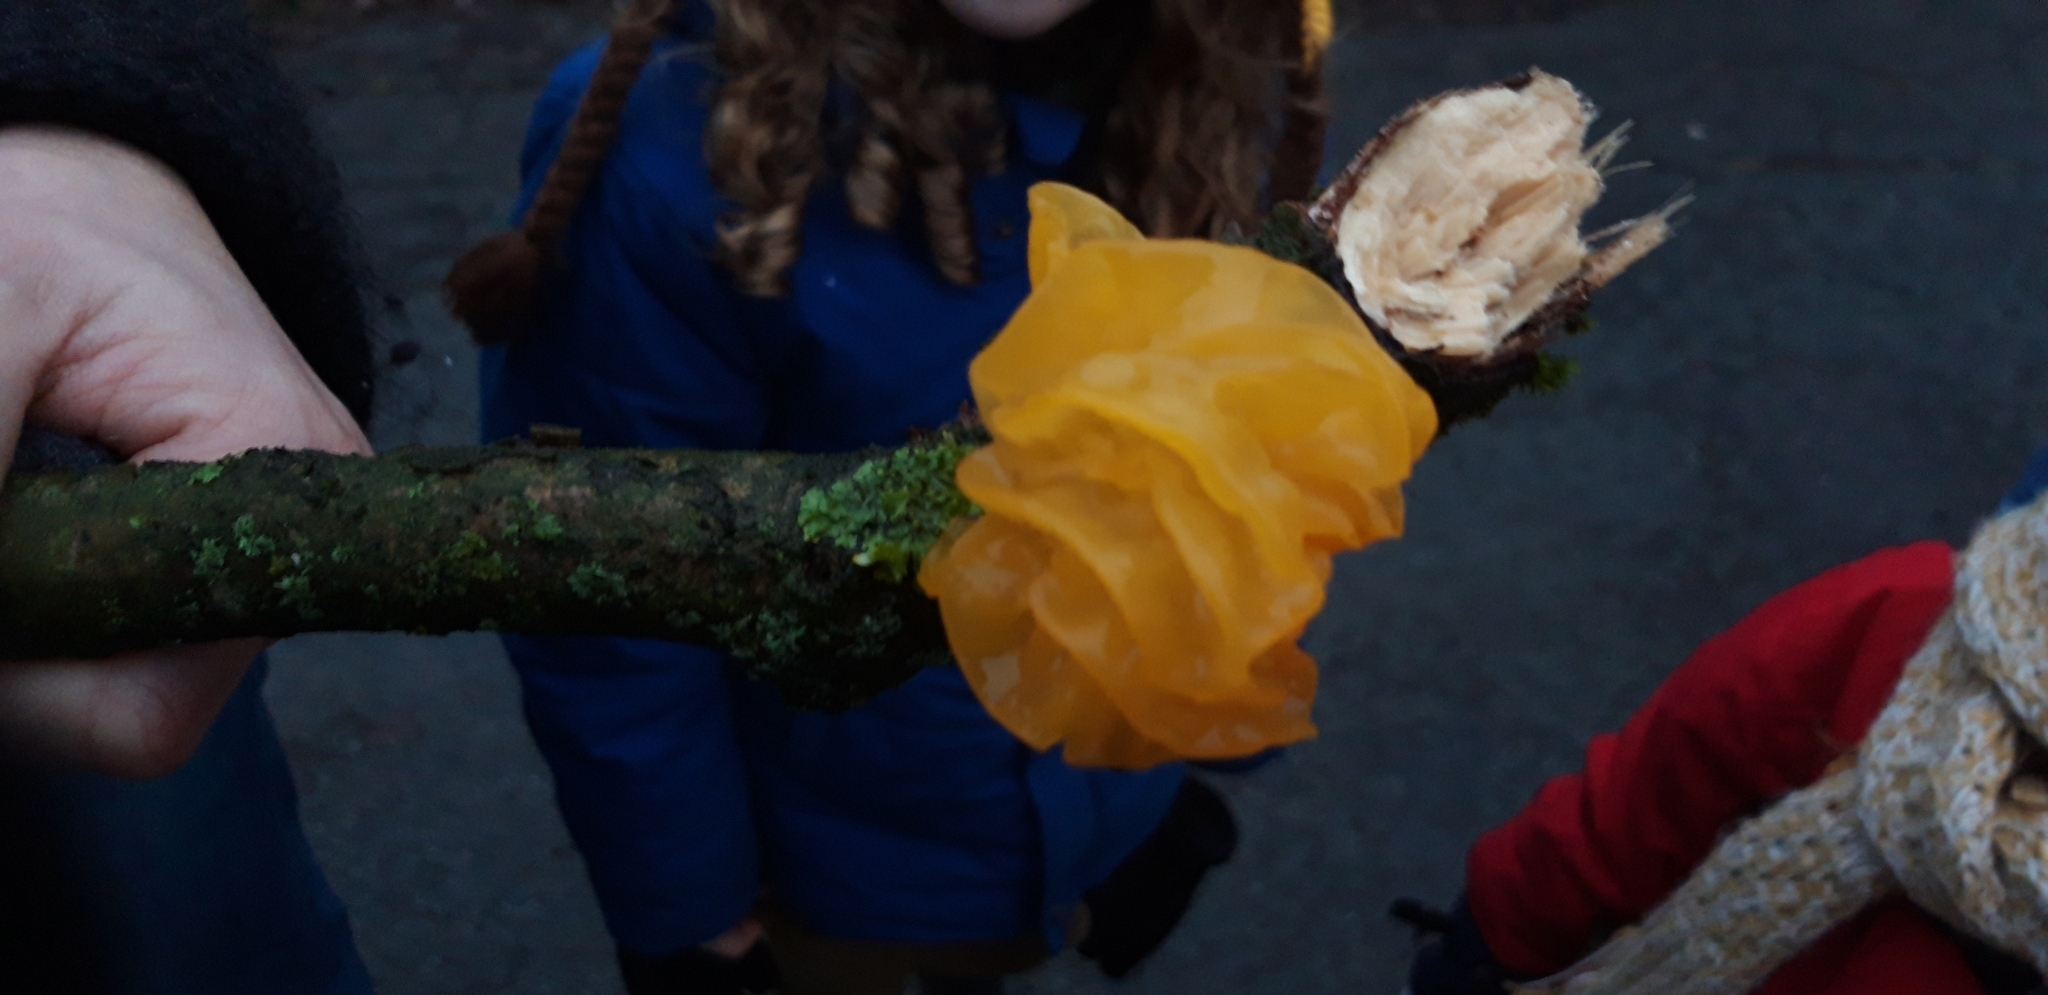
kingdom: Fungi
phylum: Basidiomycota
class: Tremellomycetes
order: Tremellales
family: Tremellaceae
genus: Tremella
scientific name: Tremella mesenterica
